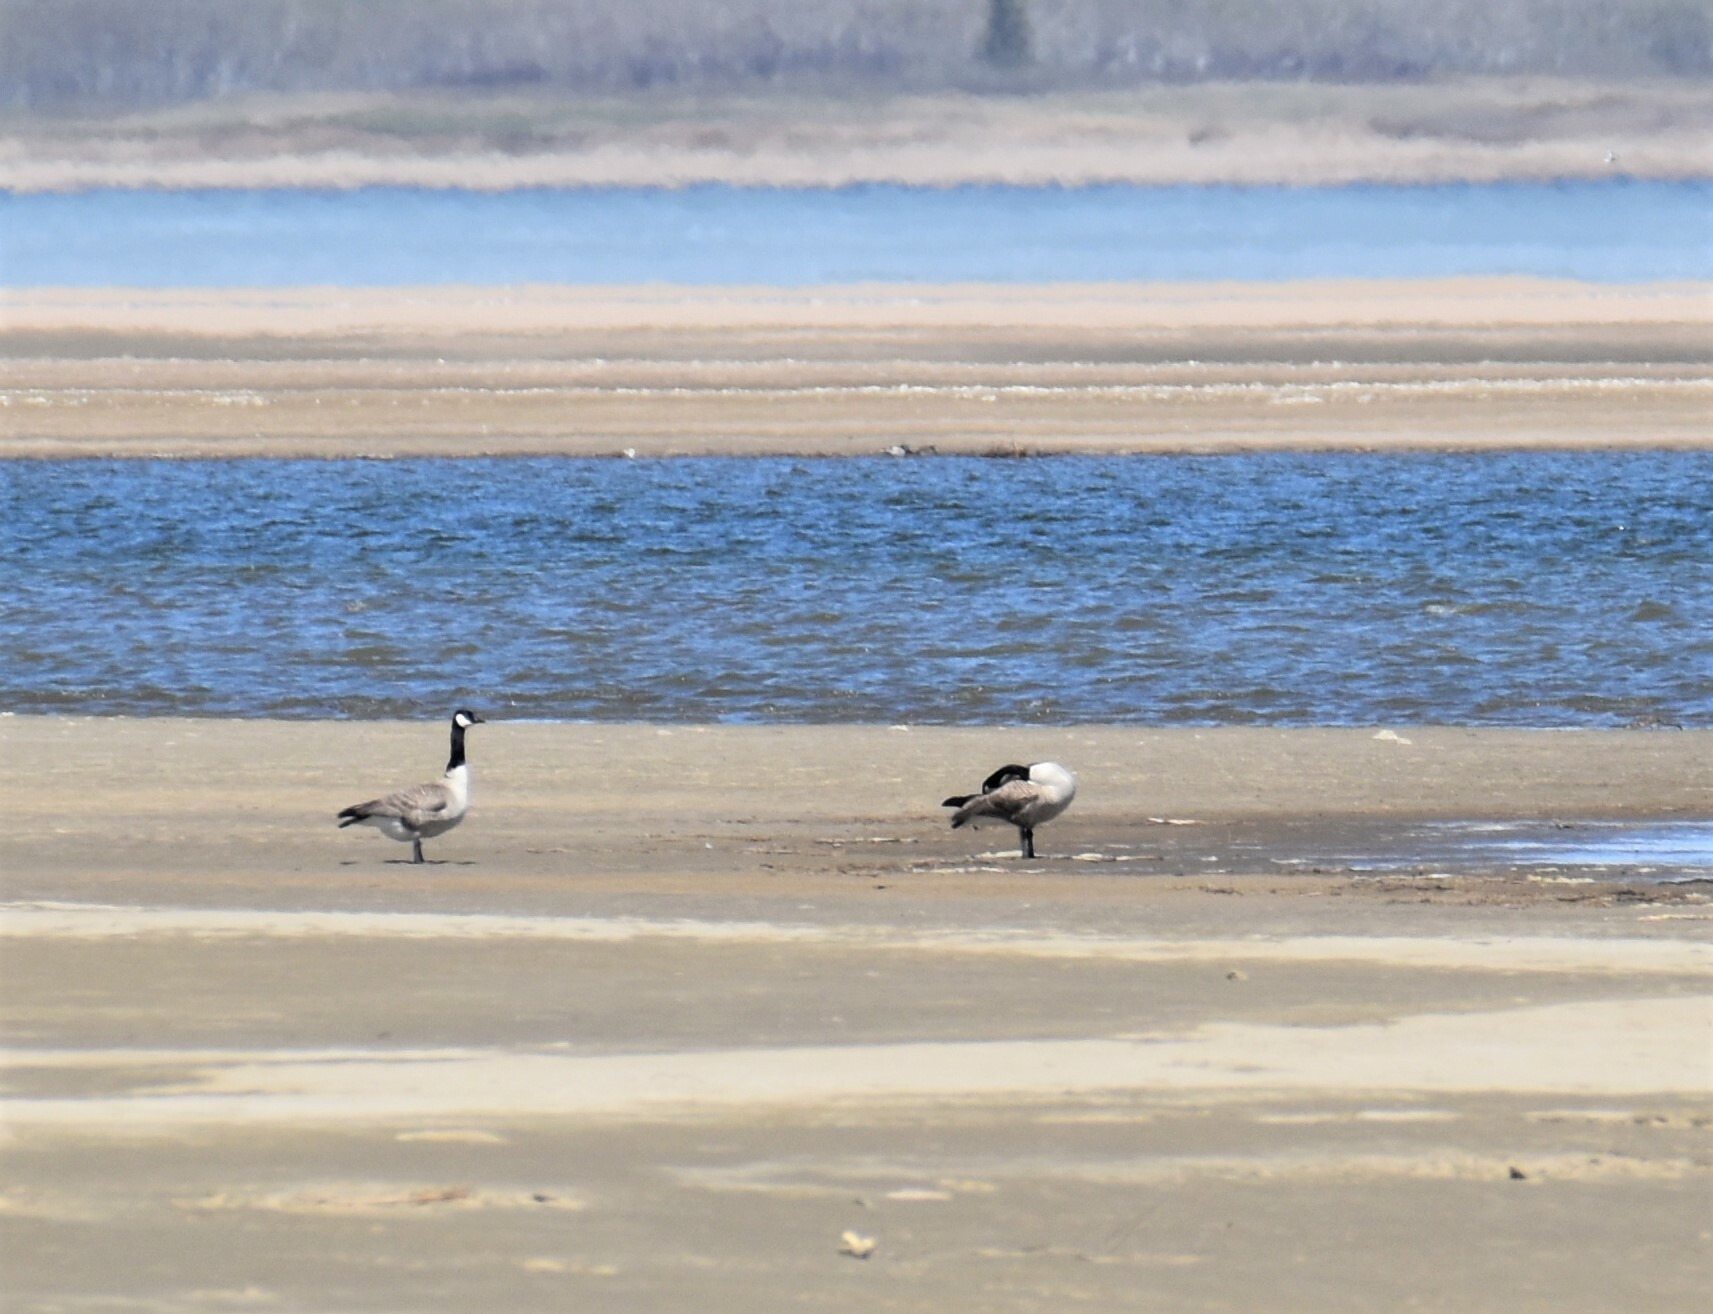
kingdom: Animalia
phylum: Chordata
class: Aves
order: Anseriformes
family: Anatidae
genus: Branta
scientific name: Branta canadensis
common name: Canada goose
